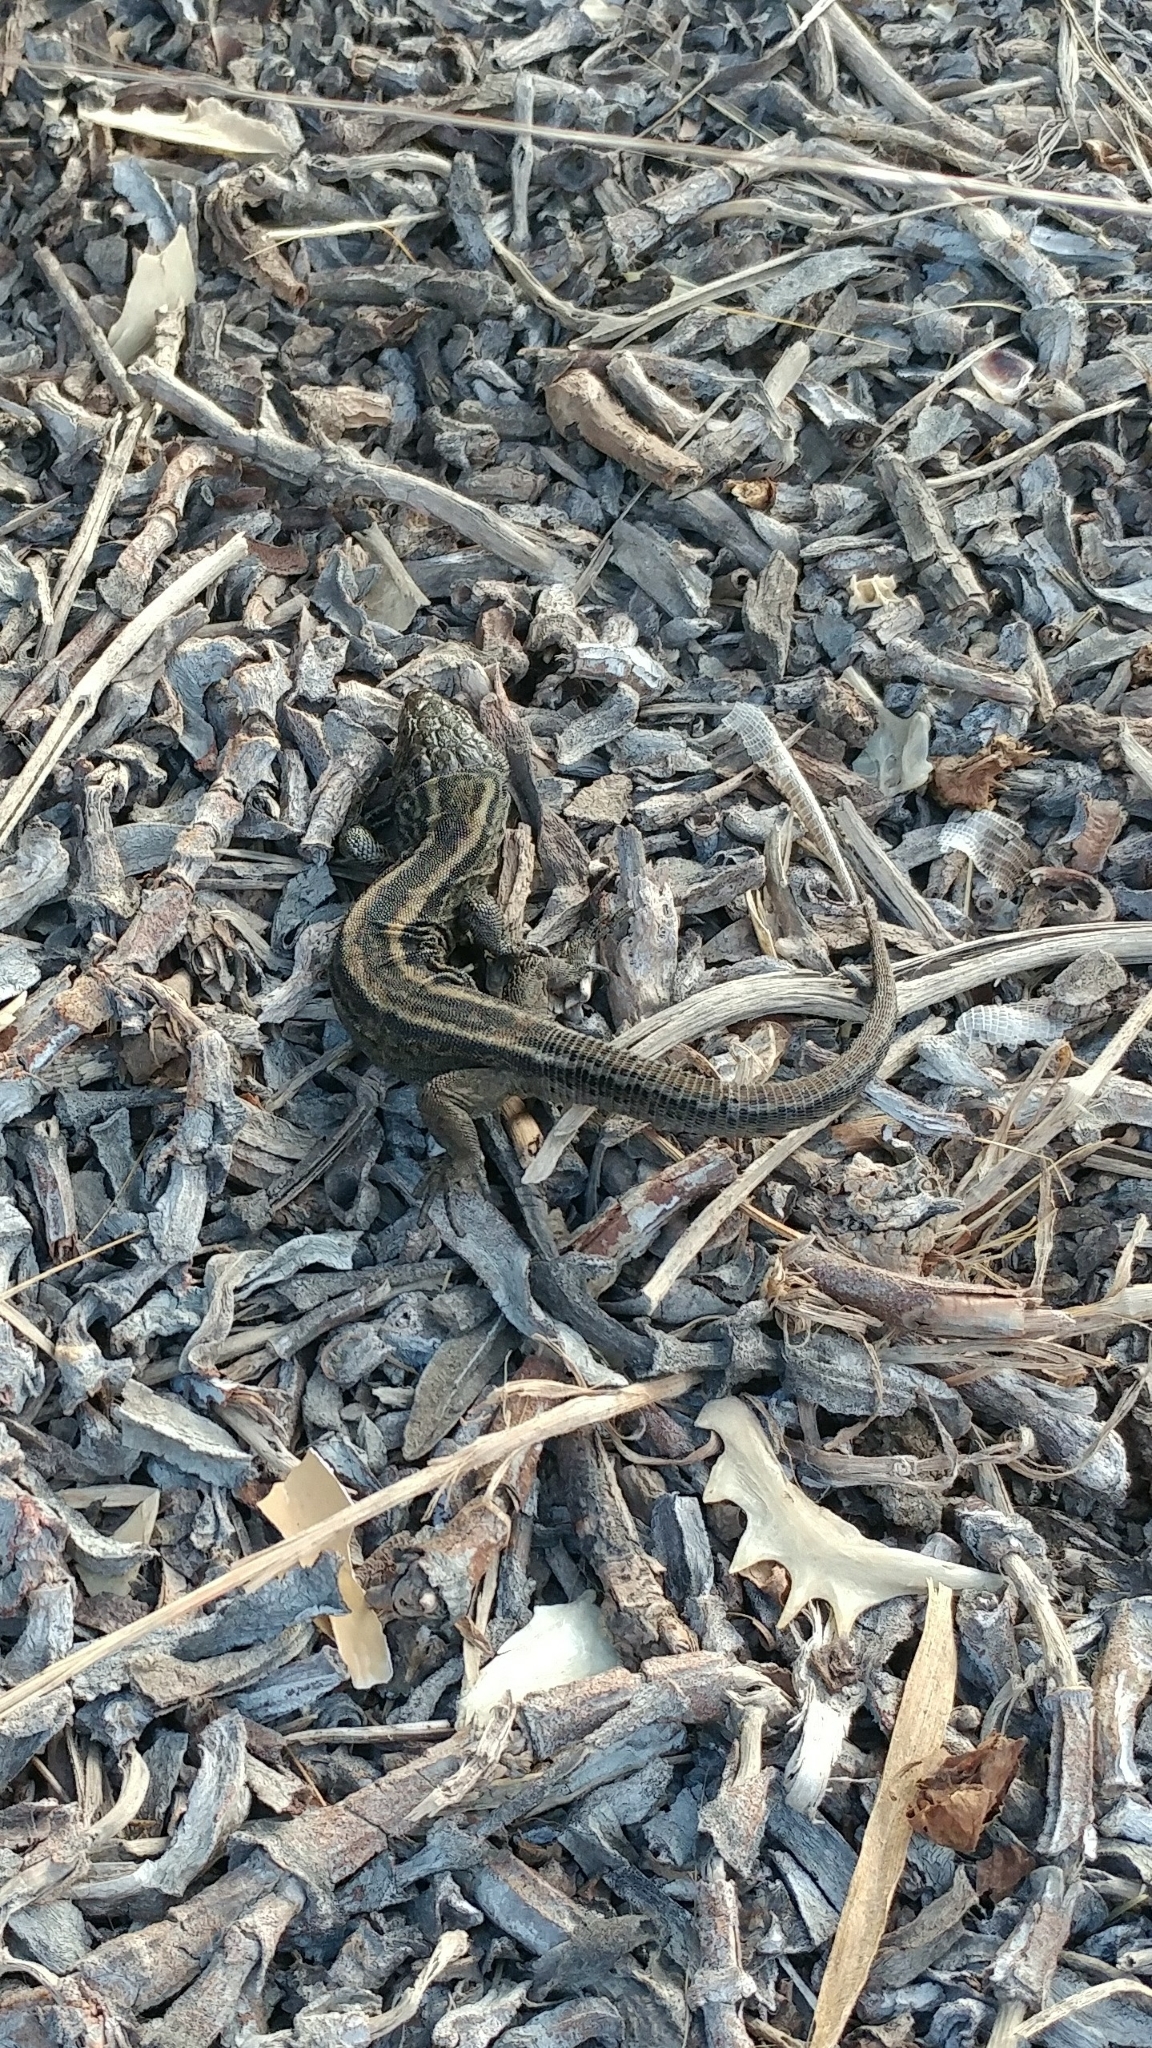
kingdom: Animalia
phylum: Chordata
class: Squamata
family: Xantusiidae
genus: Xantusia
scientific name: Xantusia riversiana
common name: Island night lizard
